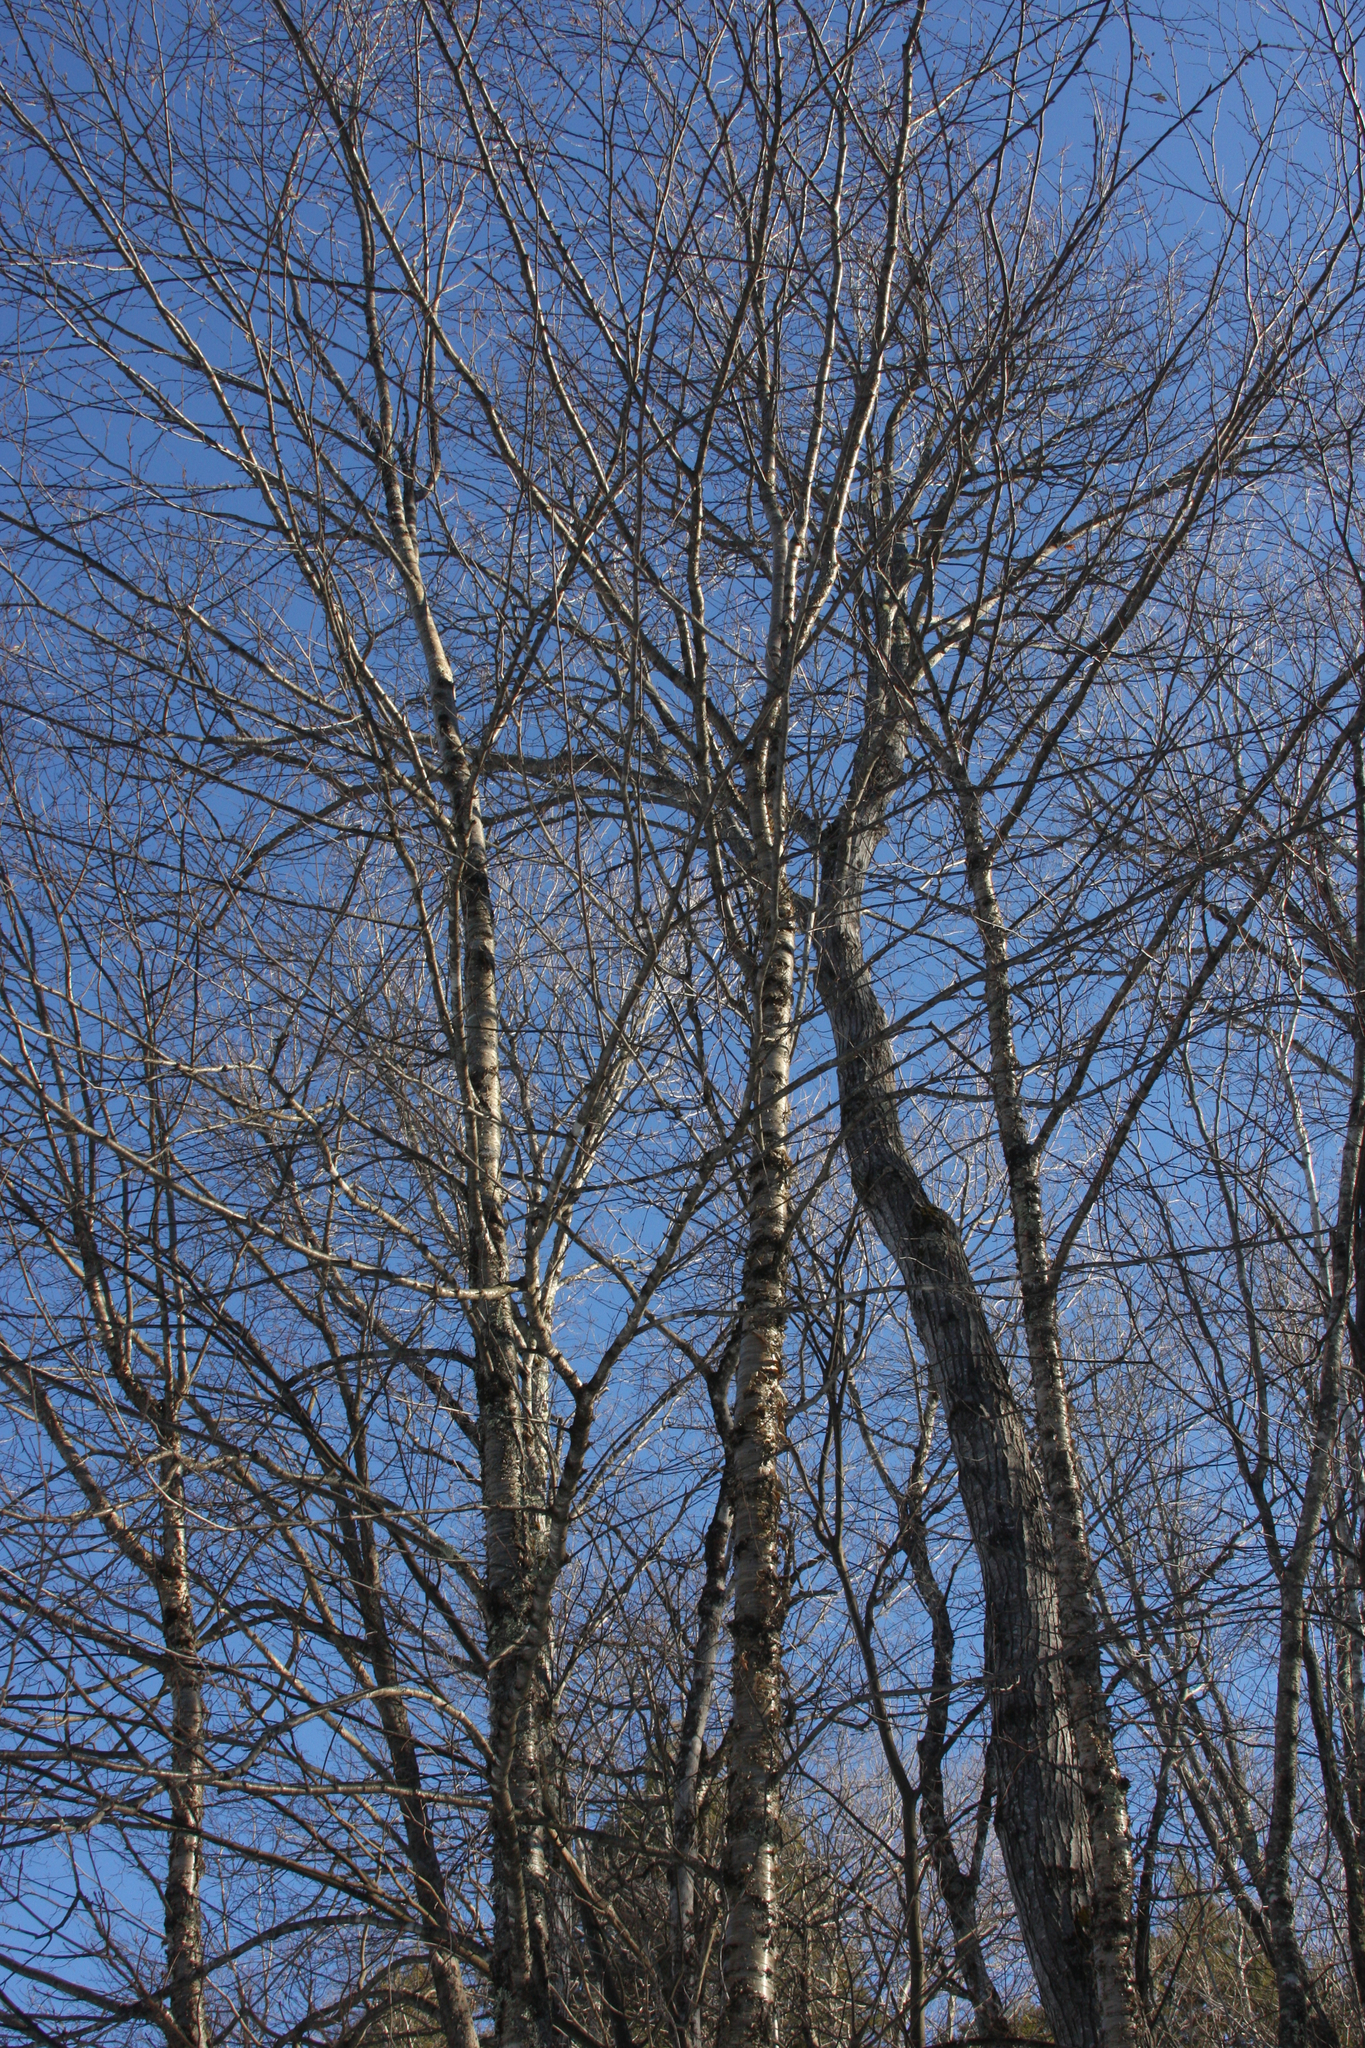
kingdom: Plantae
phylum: Tracheophyta
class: Magnoliopsida
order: Fagales
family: Betulaceae
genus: Betula
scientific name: Betula alleghaniensis
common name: Yellow birch
